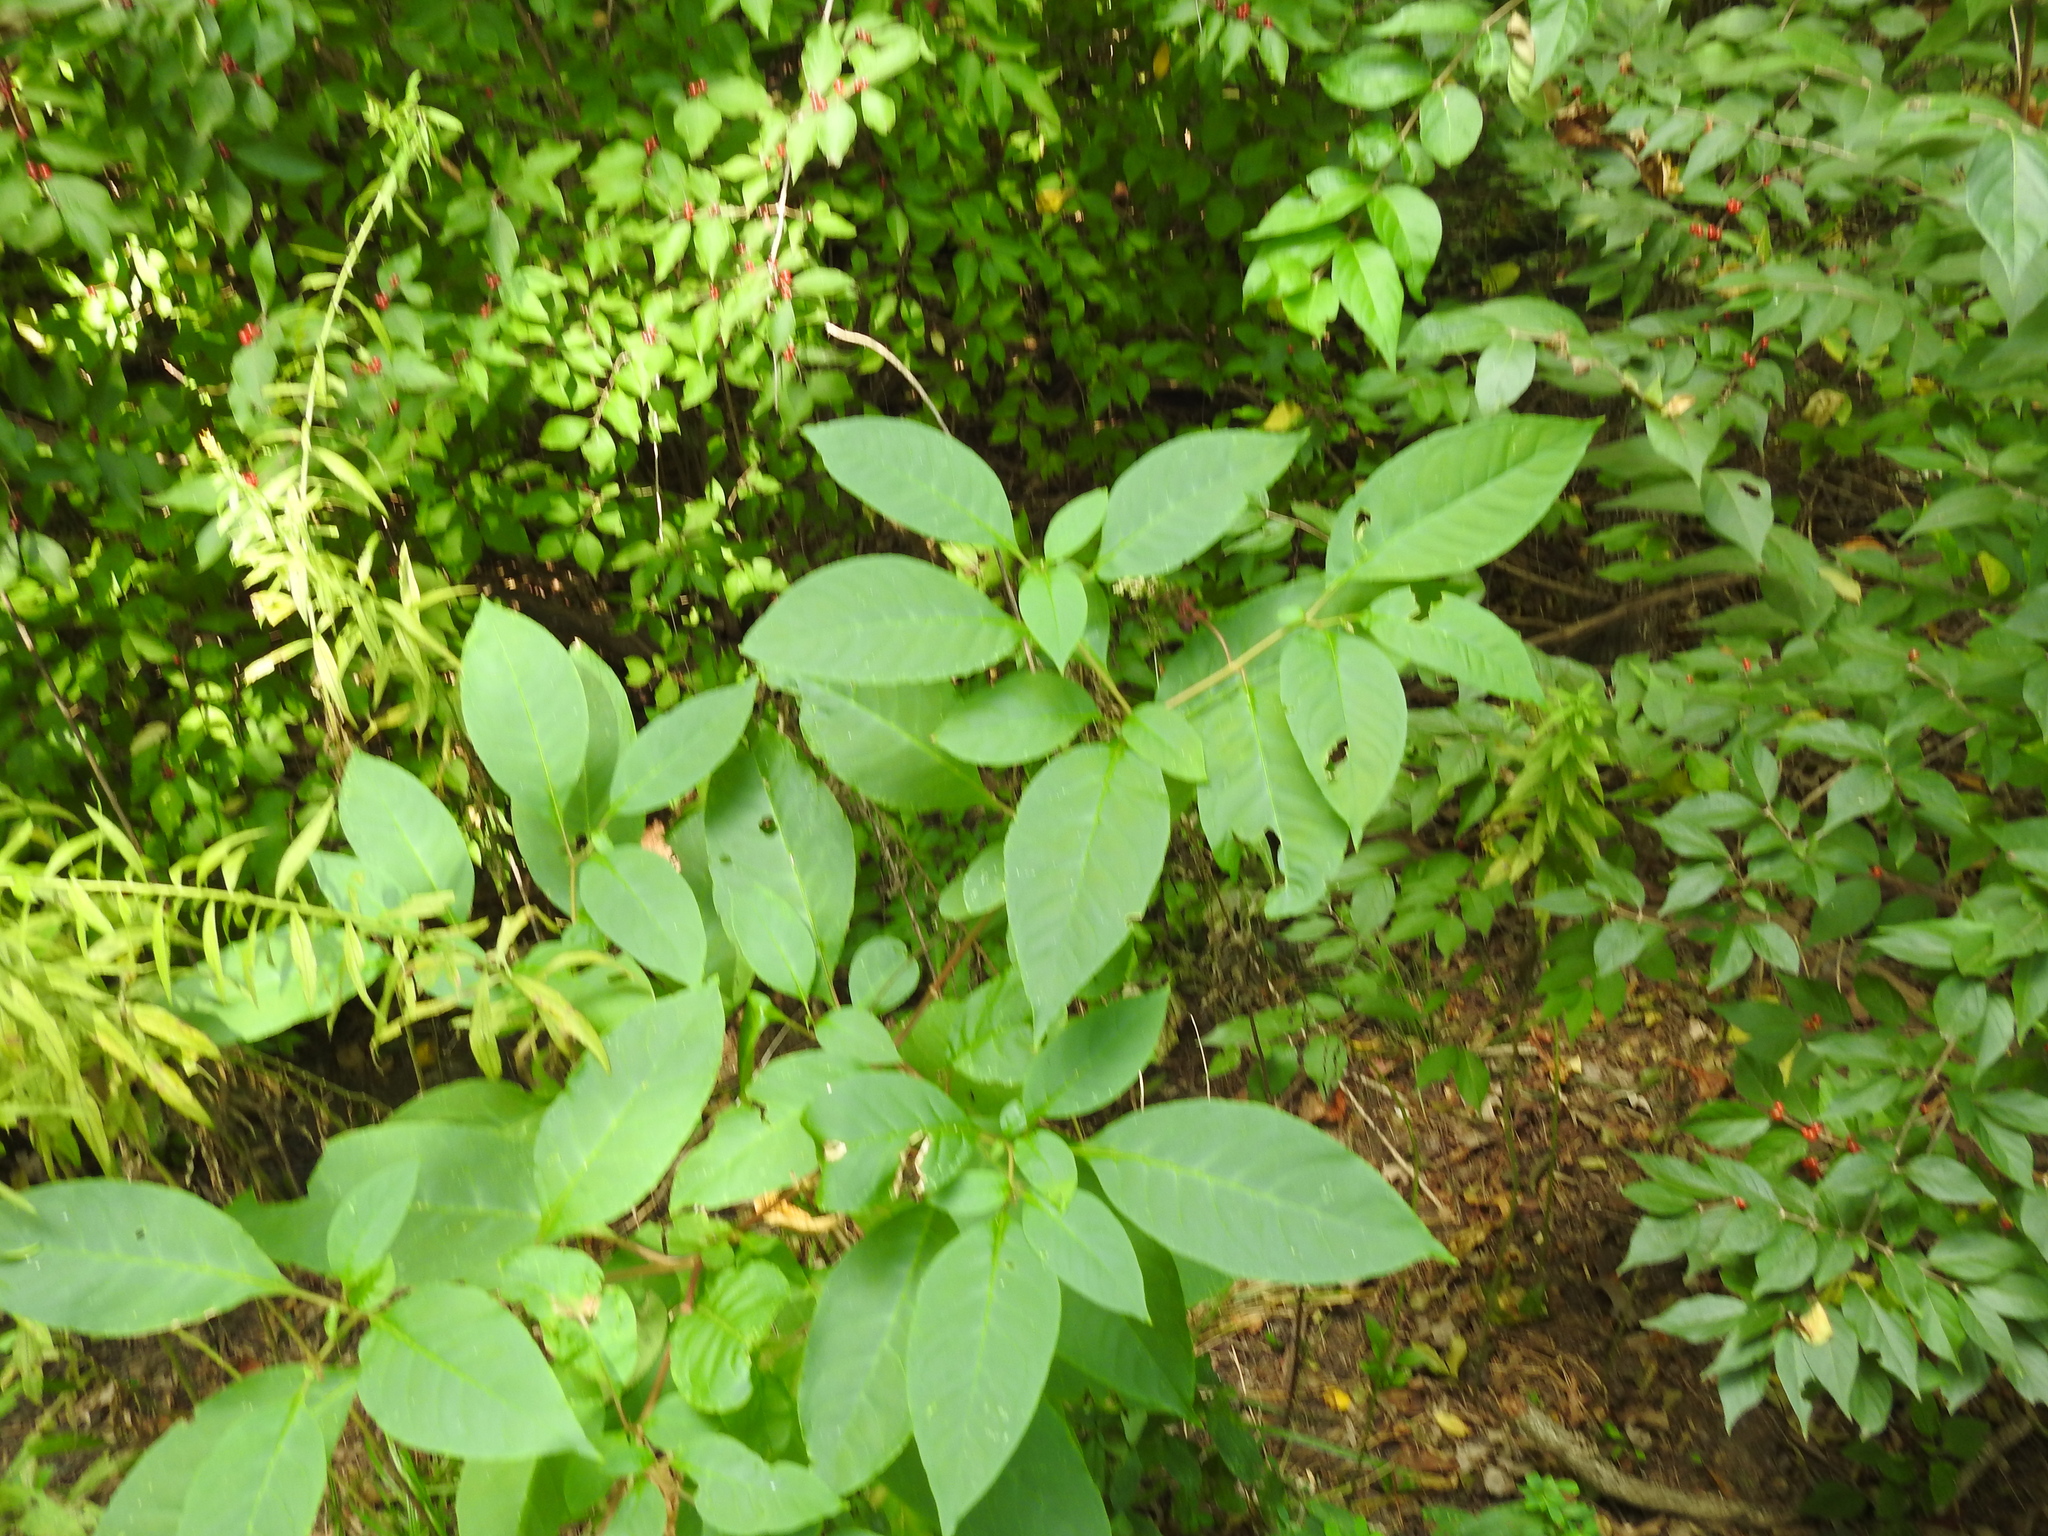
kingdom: Plantae
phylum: Tracheophyta
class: Magnoliopsida
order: Caryophyllales
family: Phytolaccaceae
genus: Phytolacca
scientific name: Phytolacca americana
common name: American pokeweed
